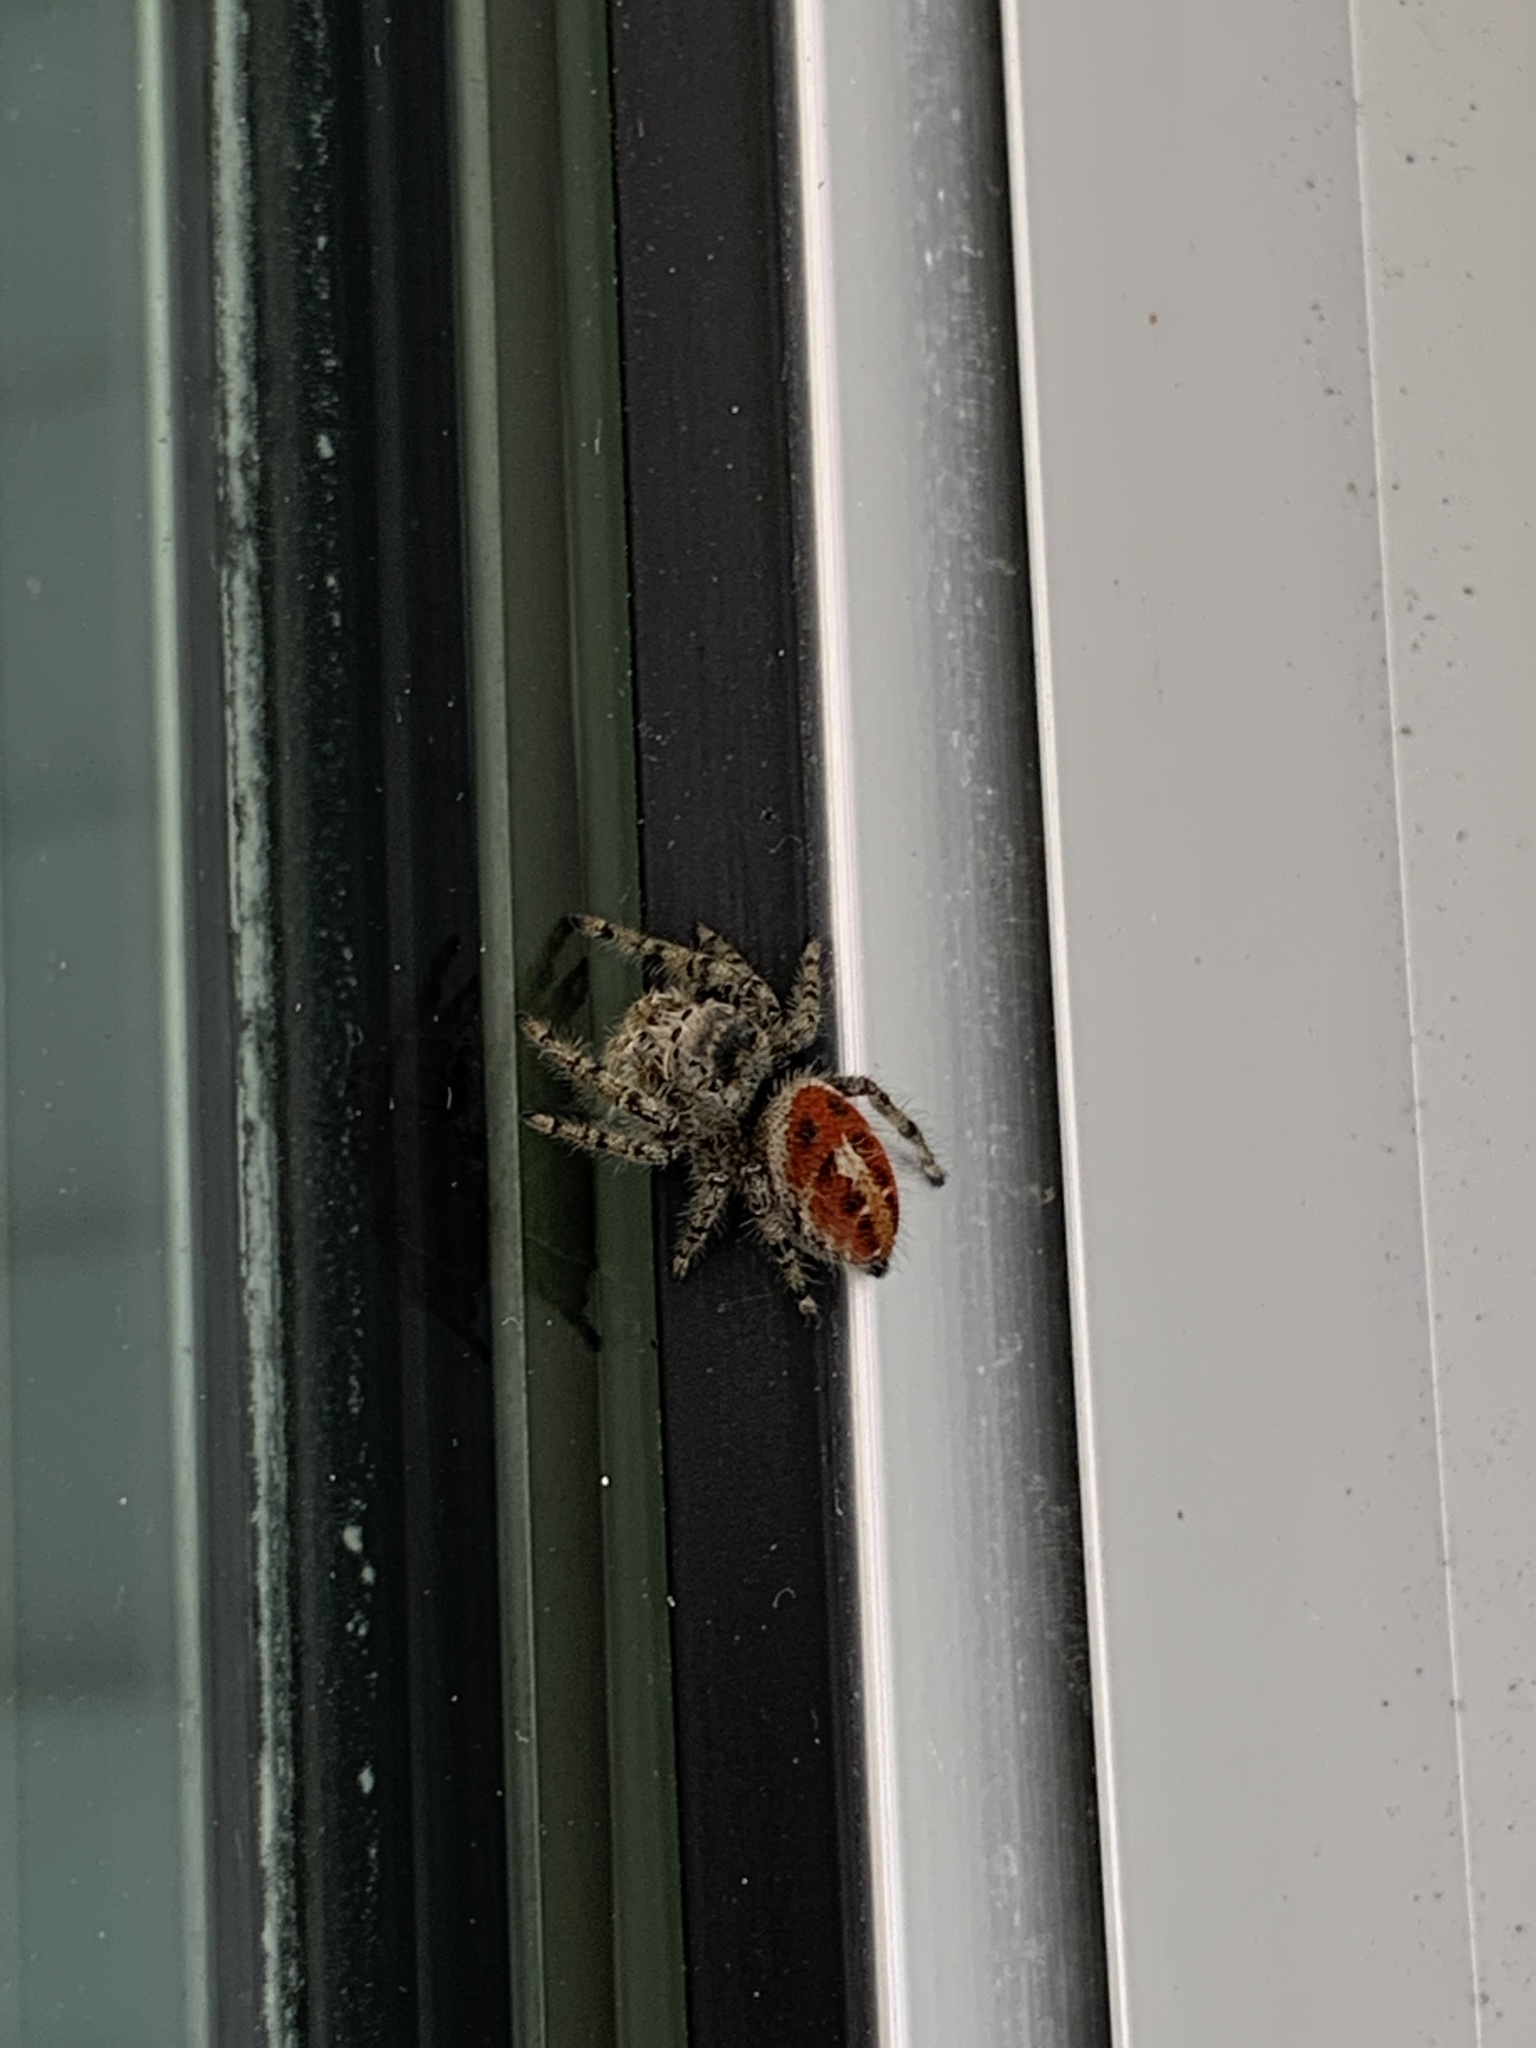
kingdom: Animalia
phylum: Arthropoda
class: Arachnida
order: Araneae
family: Salticidae
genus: Phidippus
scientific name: Phidippus adumbratus
